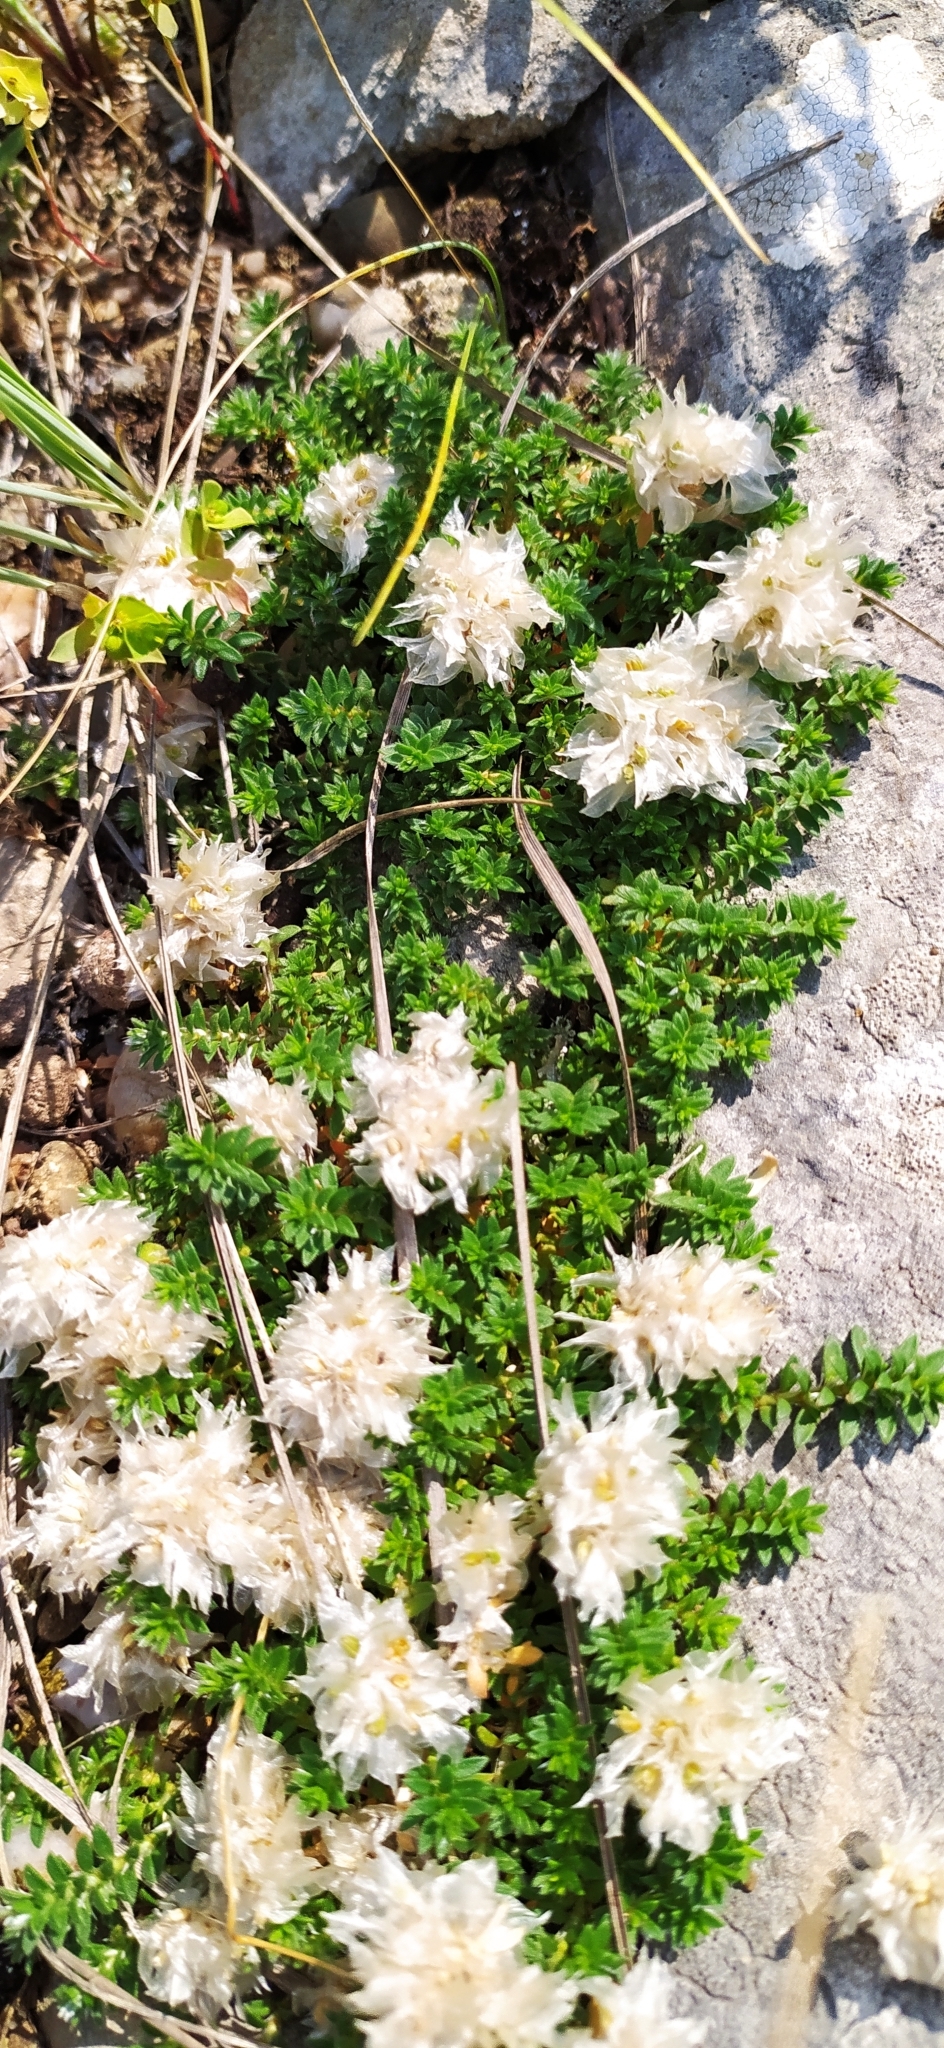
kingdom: Plantae
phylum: Tracheophyta
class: Magnoliopsida
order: Caryophyllales
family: Caryophyllaceae
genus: Paronychia
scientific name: Paronychia cephalotes
